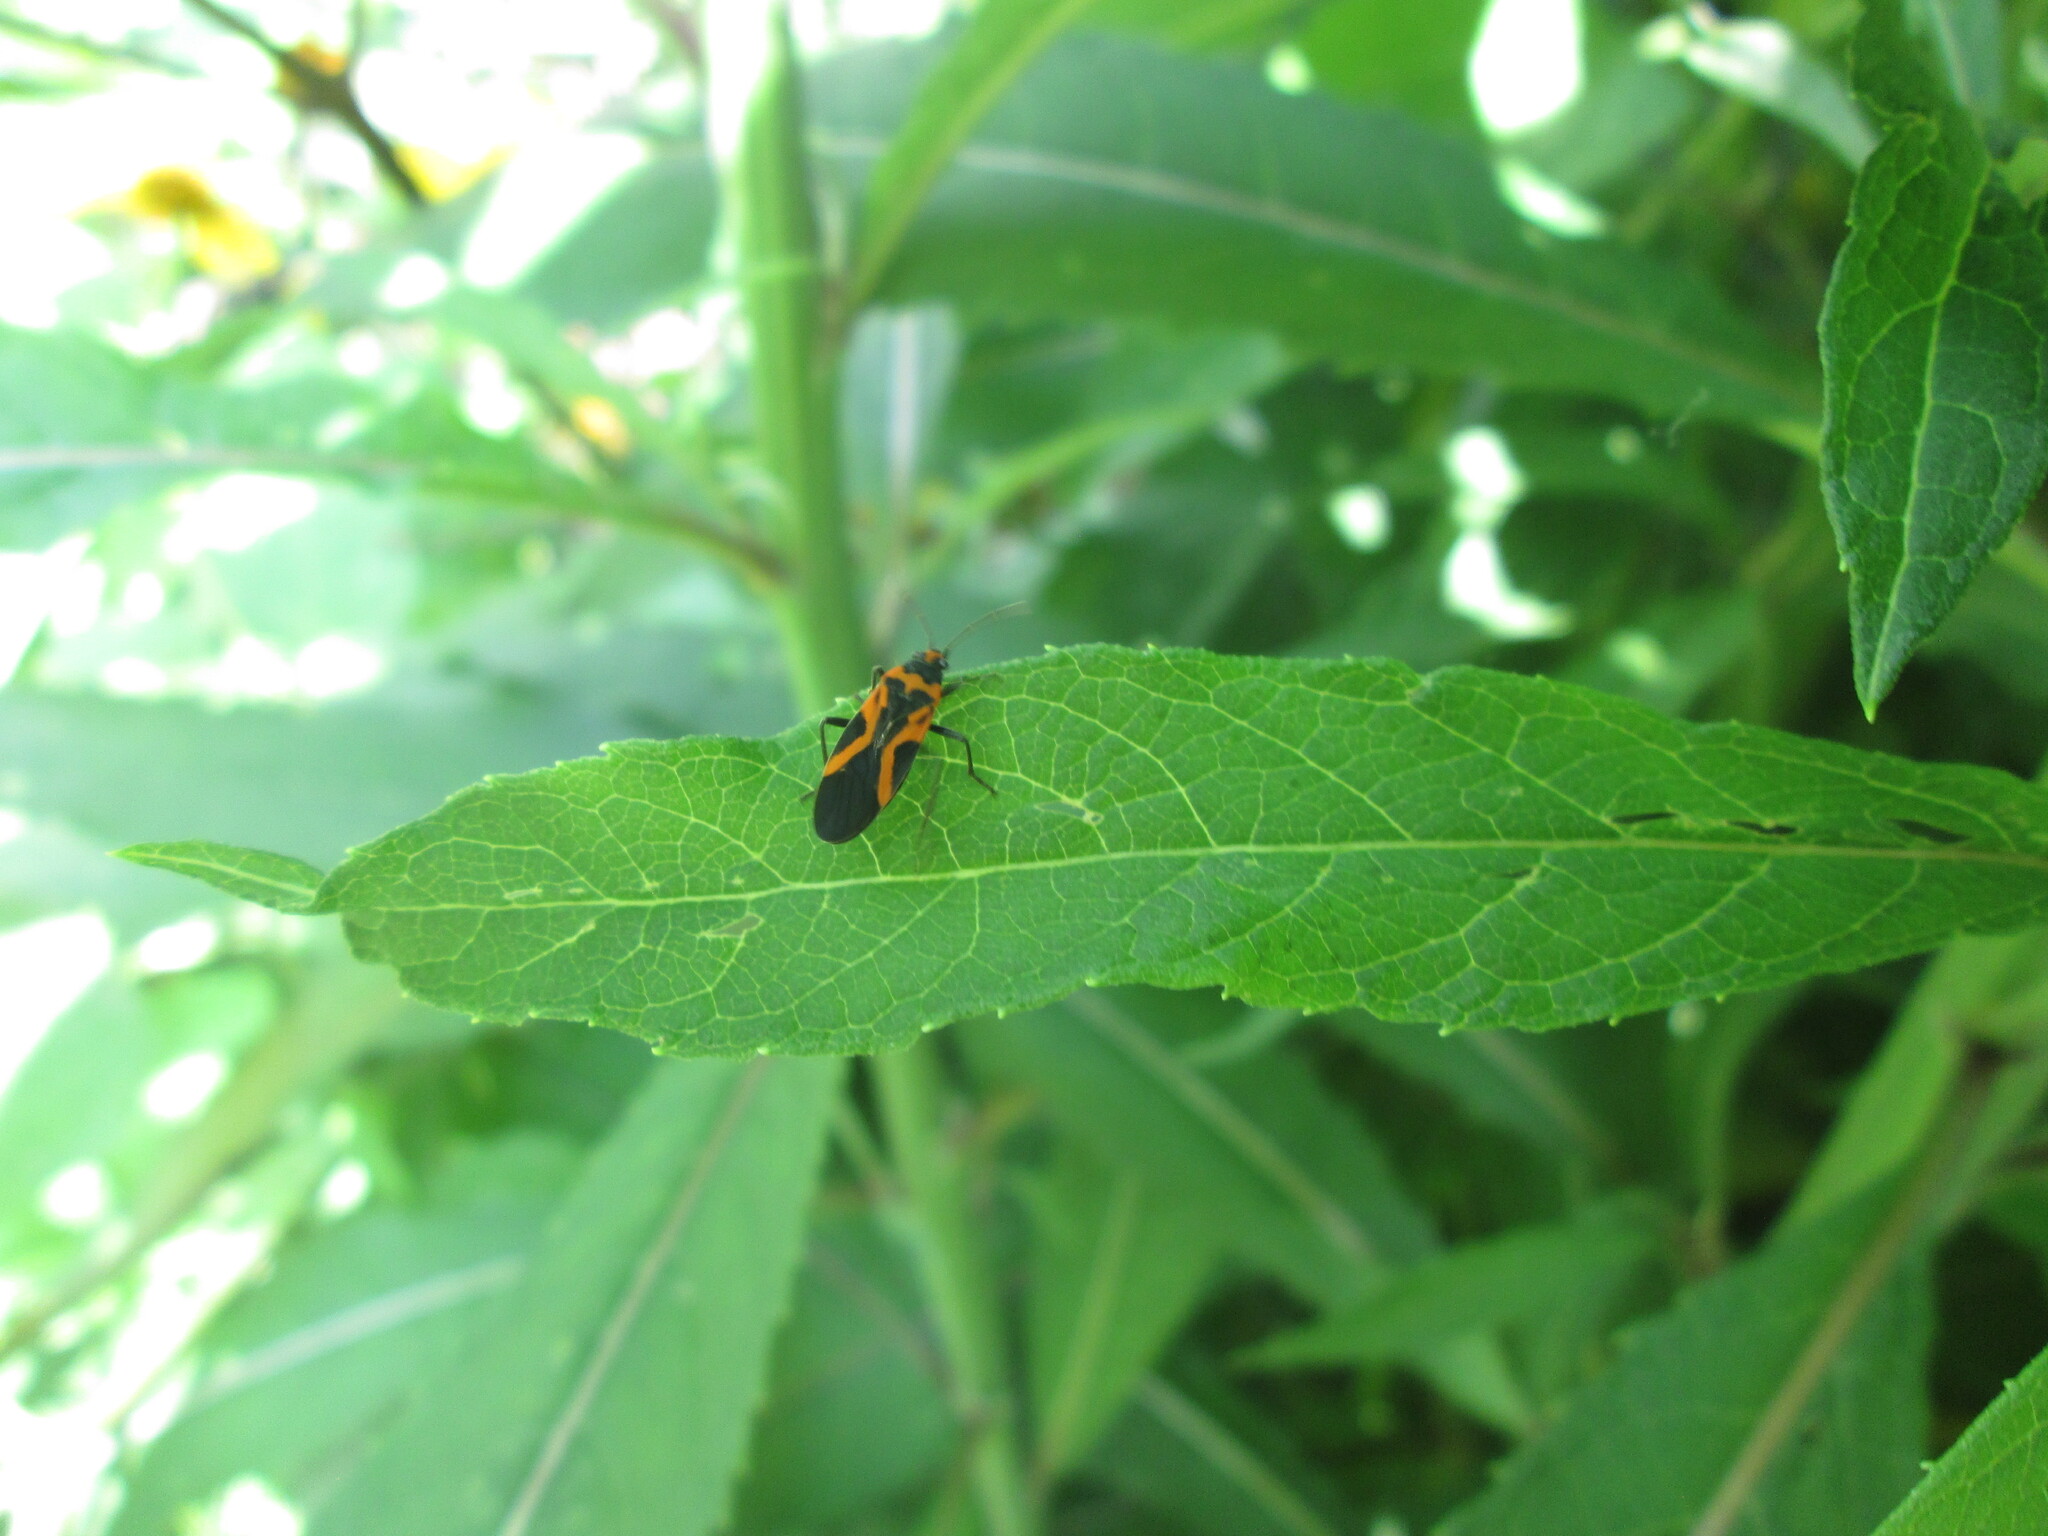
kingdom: Animalia
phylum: Arthropoda
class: Insecta
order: Hemiptera
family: Lygaeidae
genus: Lygaeus
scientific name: Lygaeus turcicus
